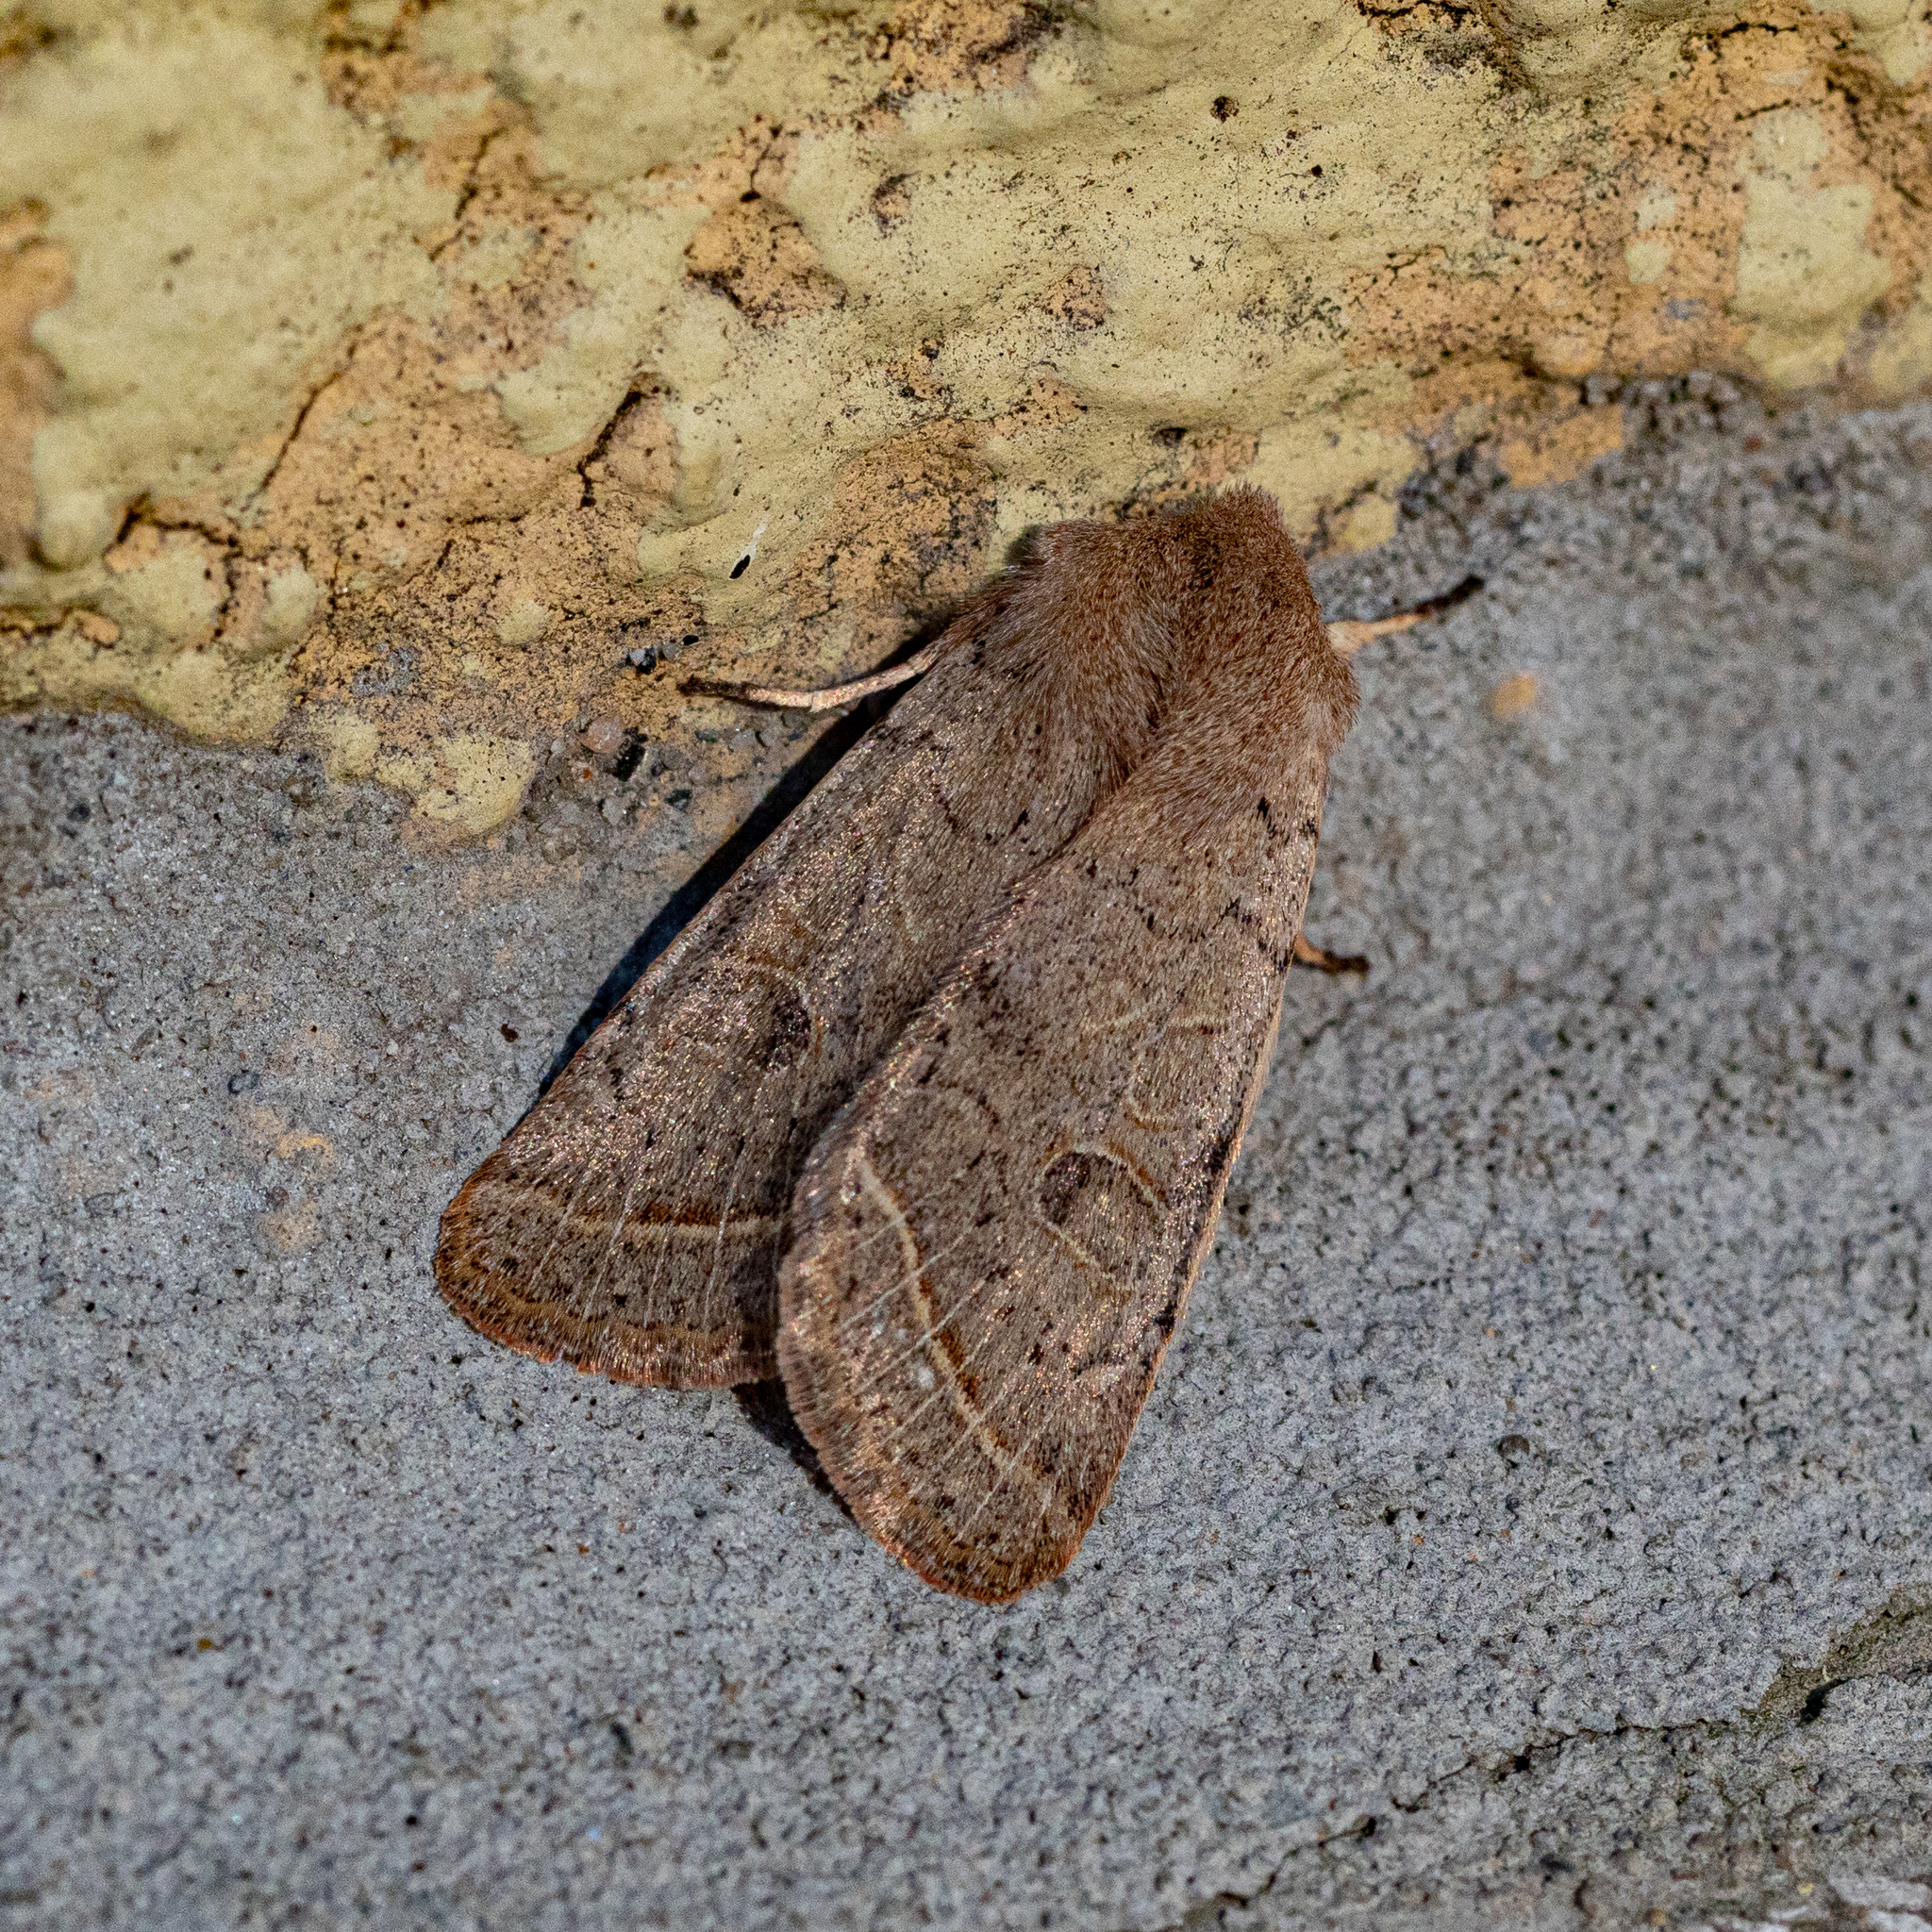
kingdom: Animalia
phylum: Arthropoda
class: Insecta
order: Lepidoptera
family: Noctuidae
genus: Orthosia
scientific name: Orthosia cerasi
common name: Common quaker
